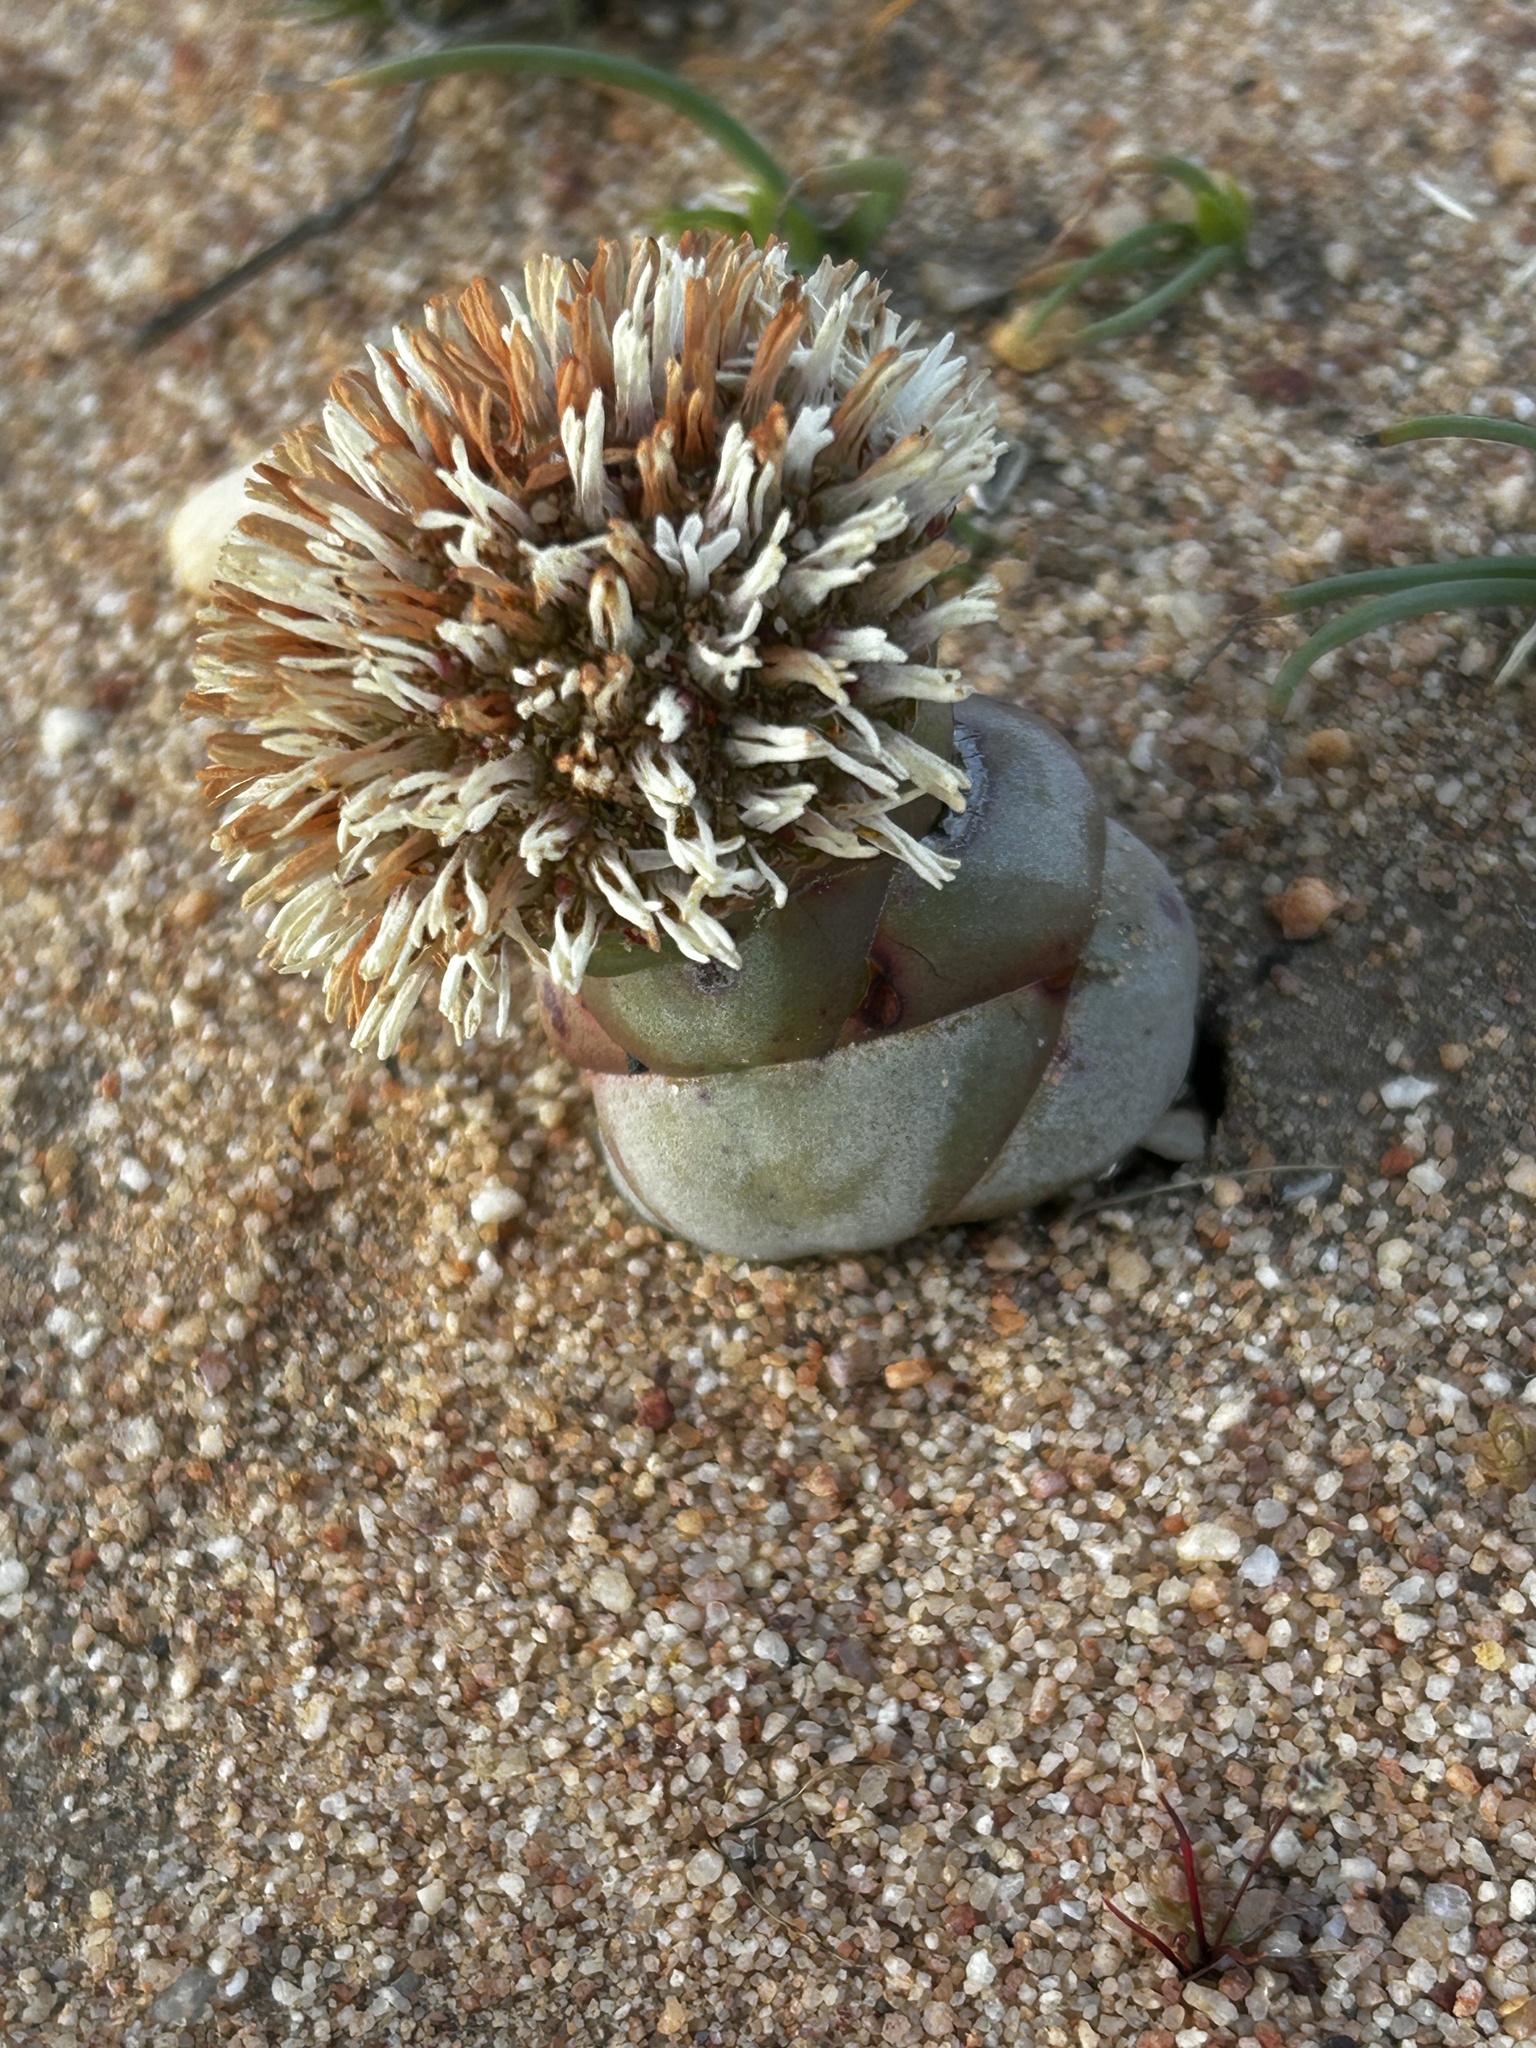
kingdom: Plantae
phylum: Tracheophyta
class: Magnoliopsida
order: Saxifragales
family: Crassulaceae
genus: Crassula
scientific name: Crassula columnaris
